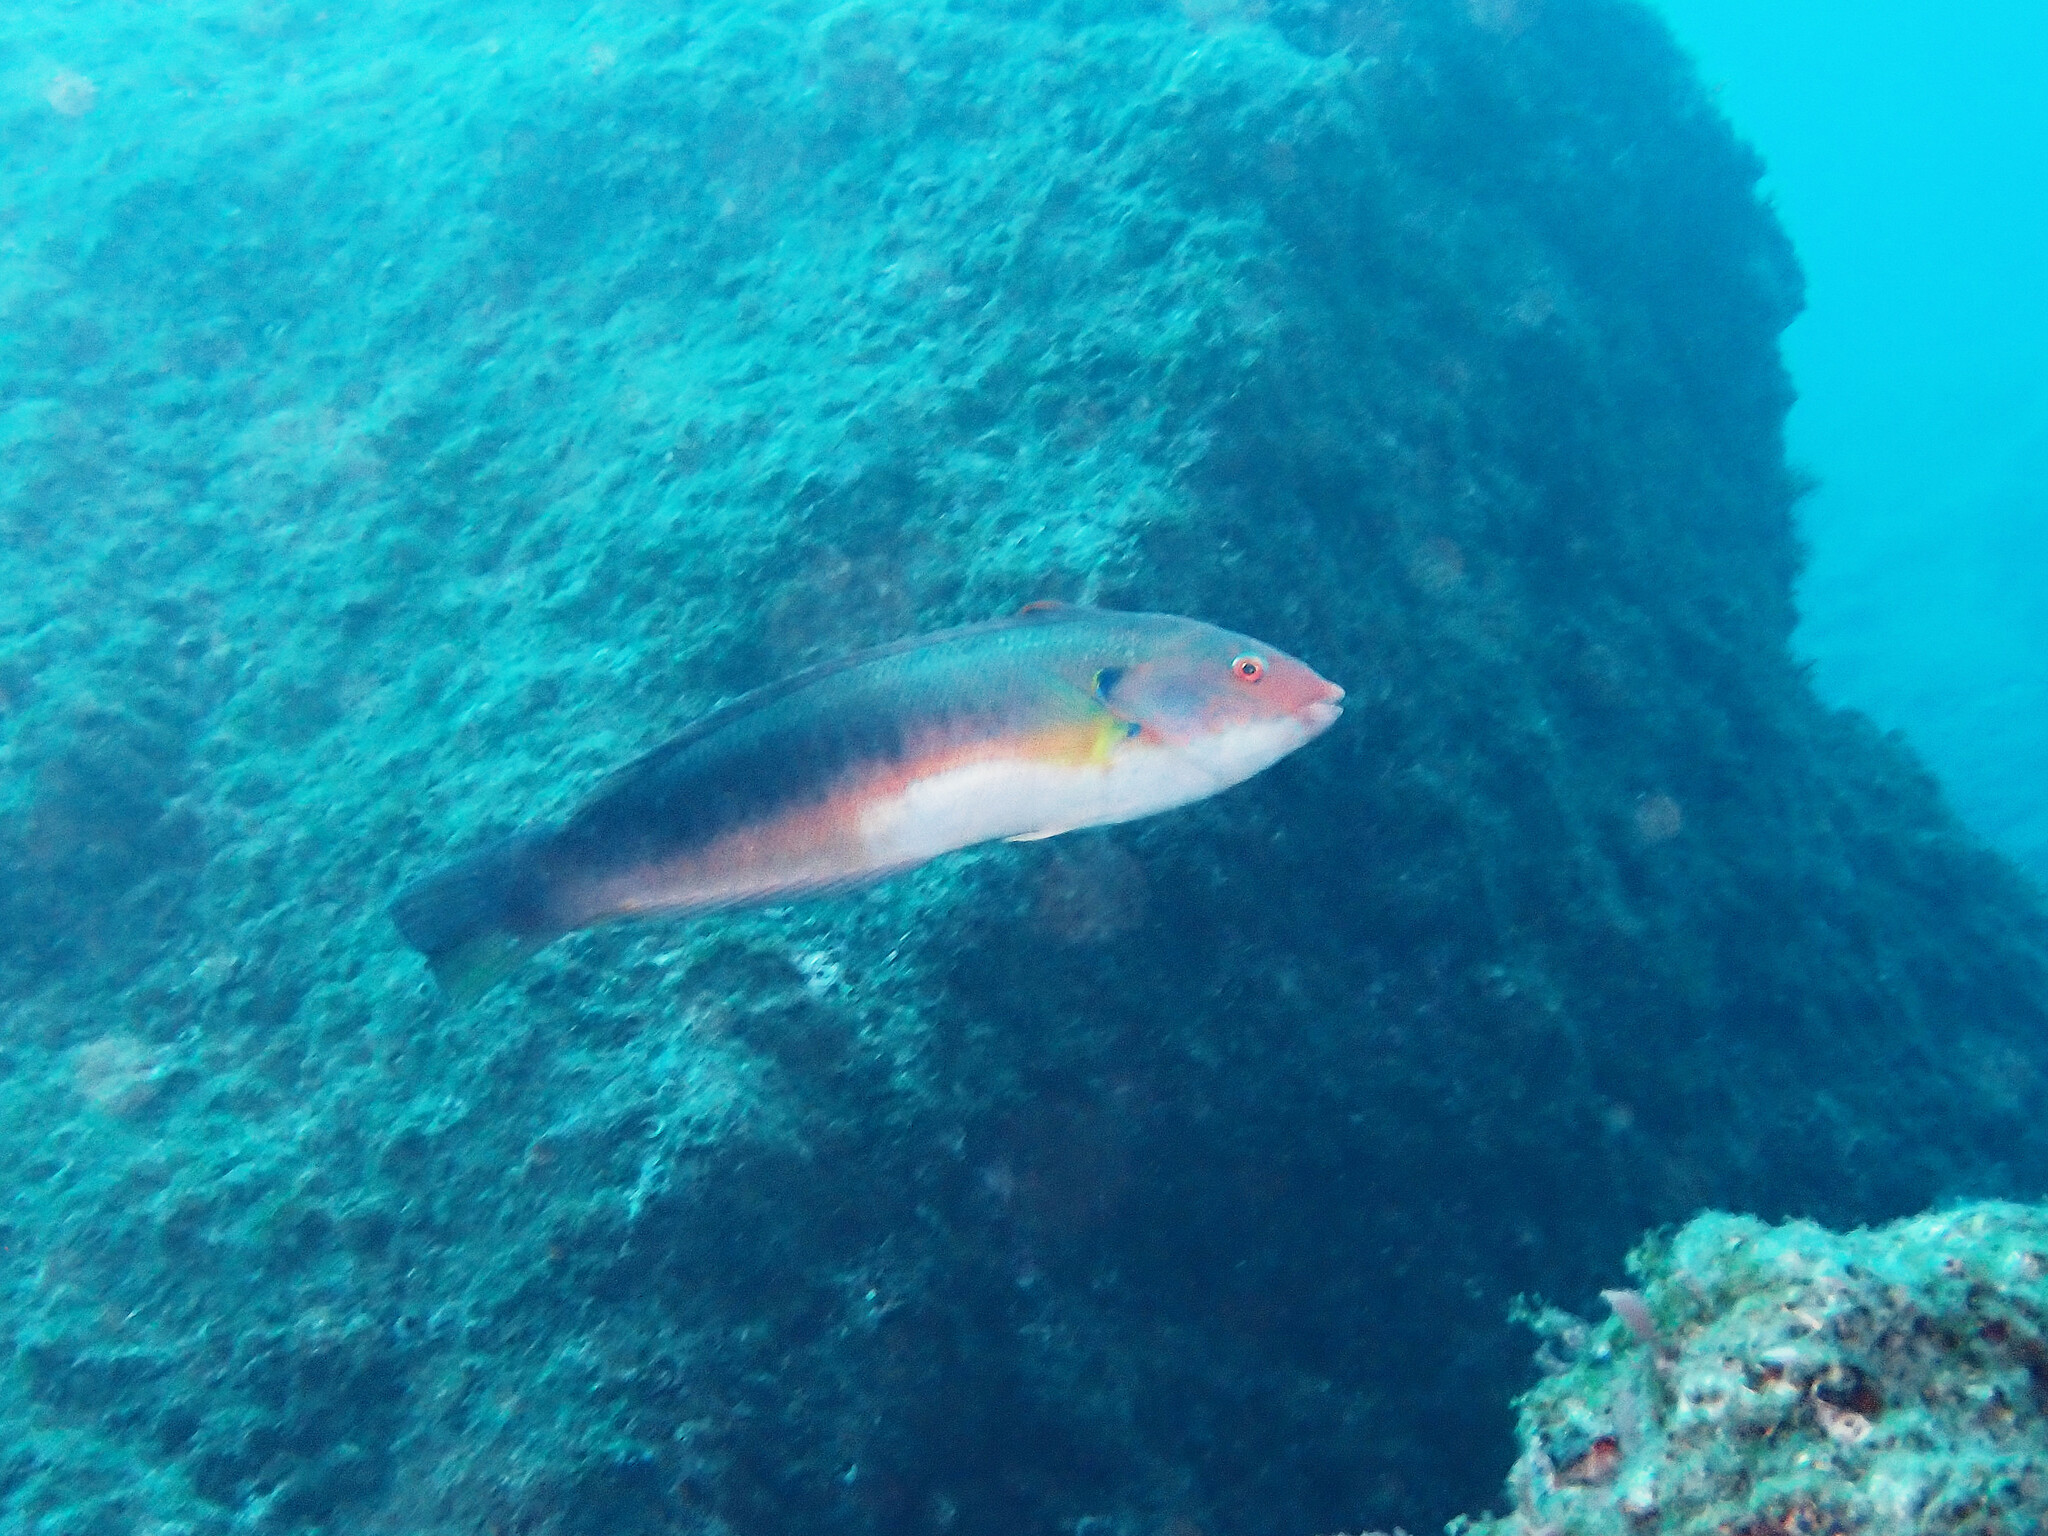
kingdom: Animalia
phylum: Chordata
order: Perciformes
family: Labridae
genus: Coris
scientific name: Coris
